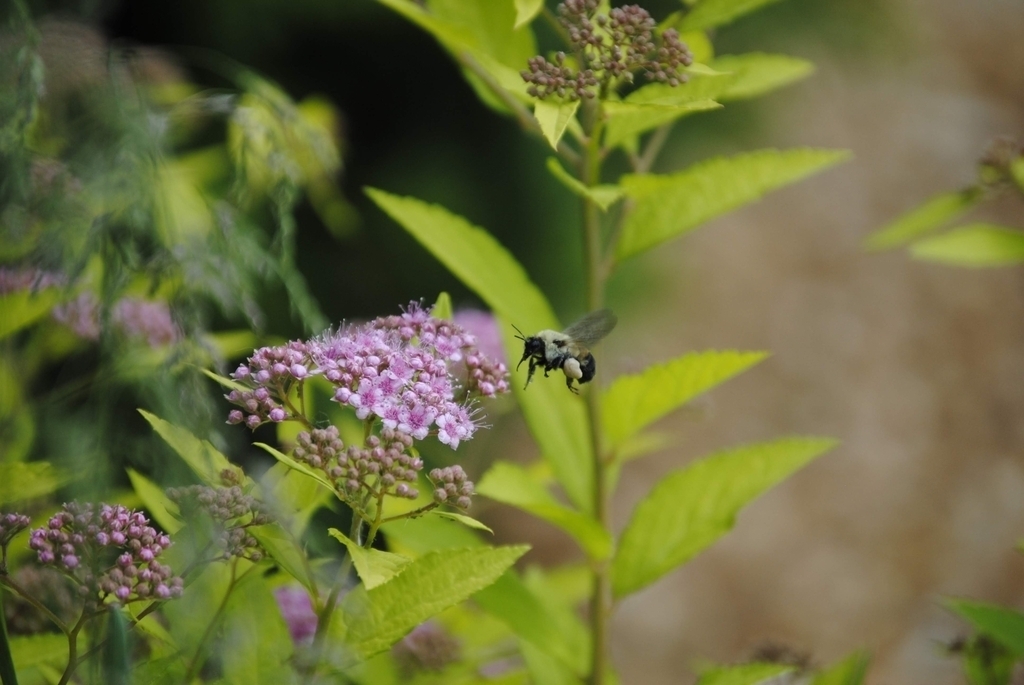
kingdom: Animalia
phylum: Arthropoda
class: Insecta
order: Hymenoptera
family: Apidae
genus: Bombus
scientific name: Bombus griseocollis
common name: Brown-belted bumble bee
